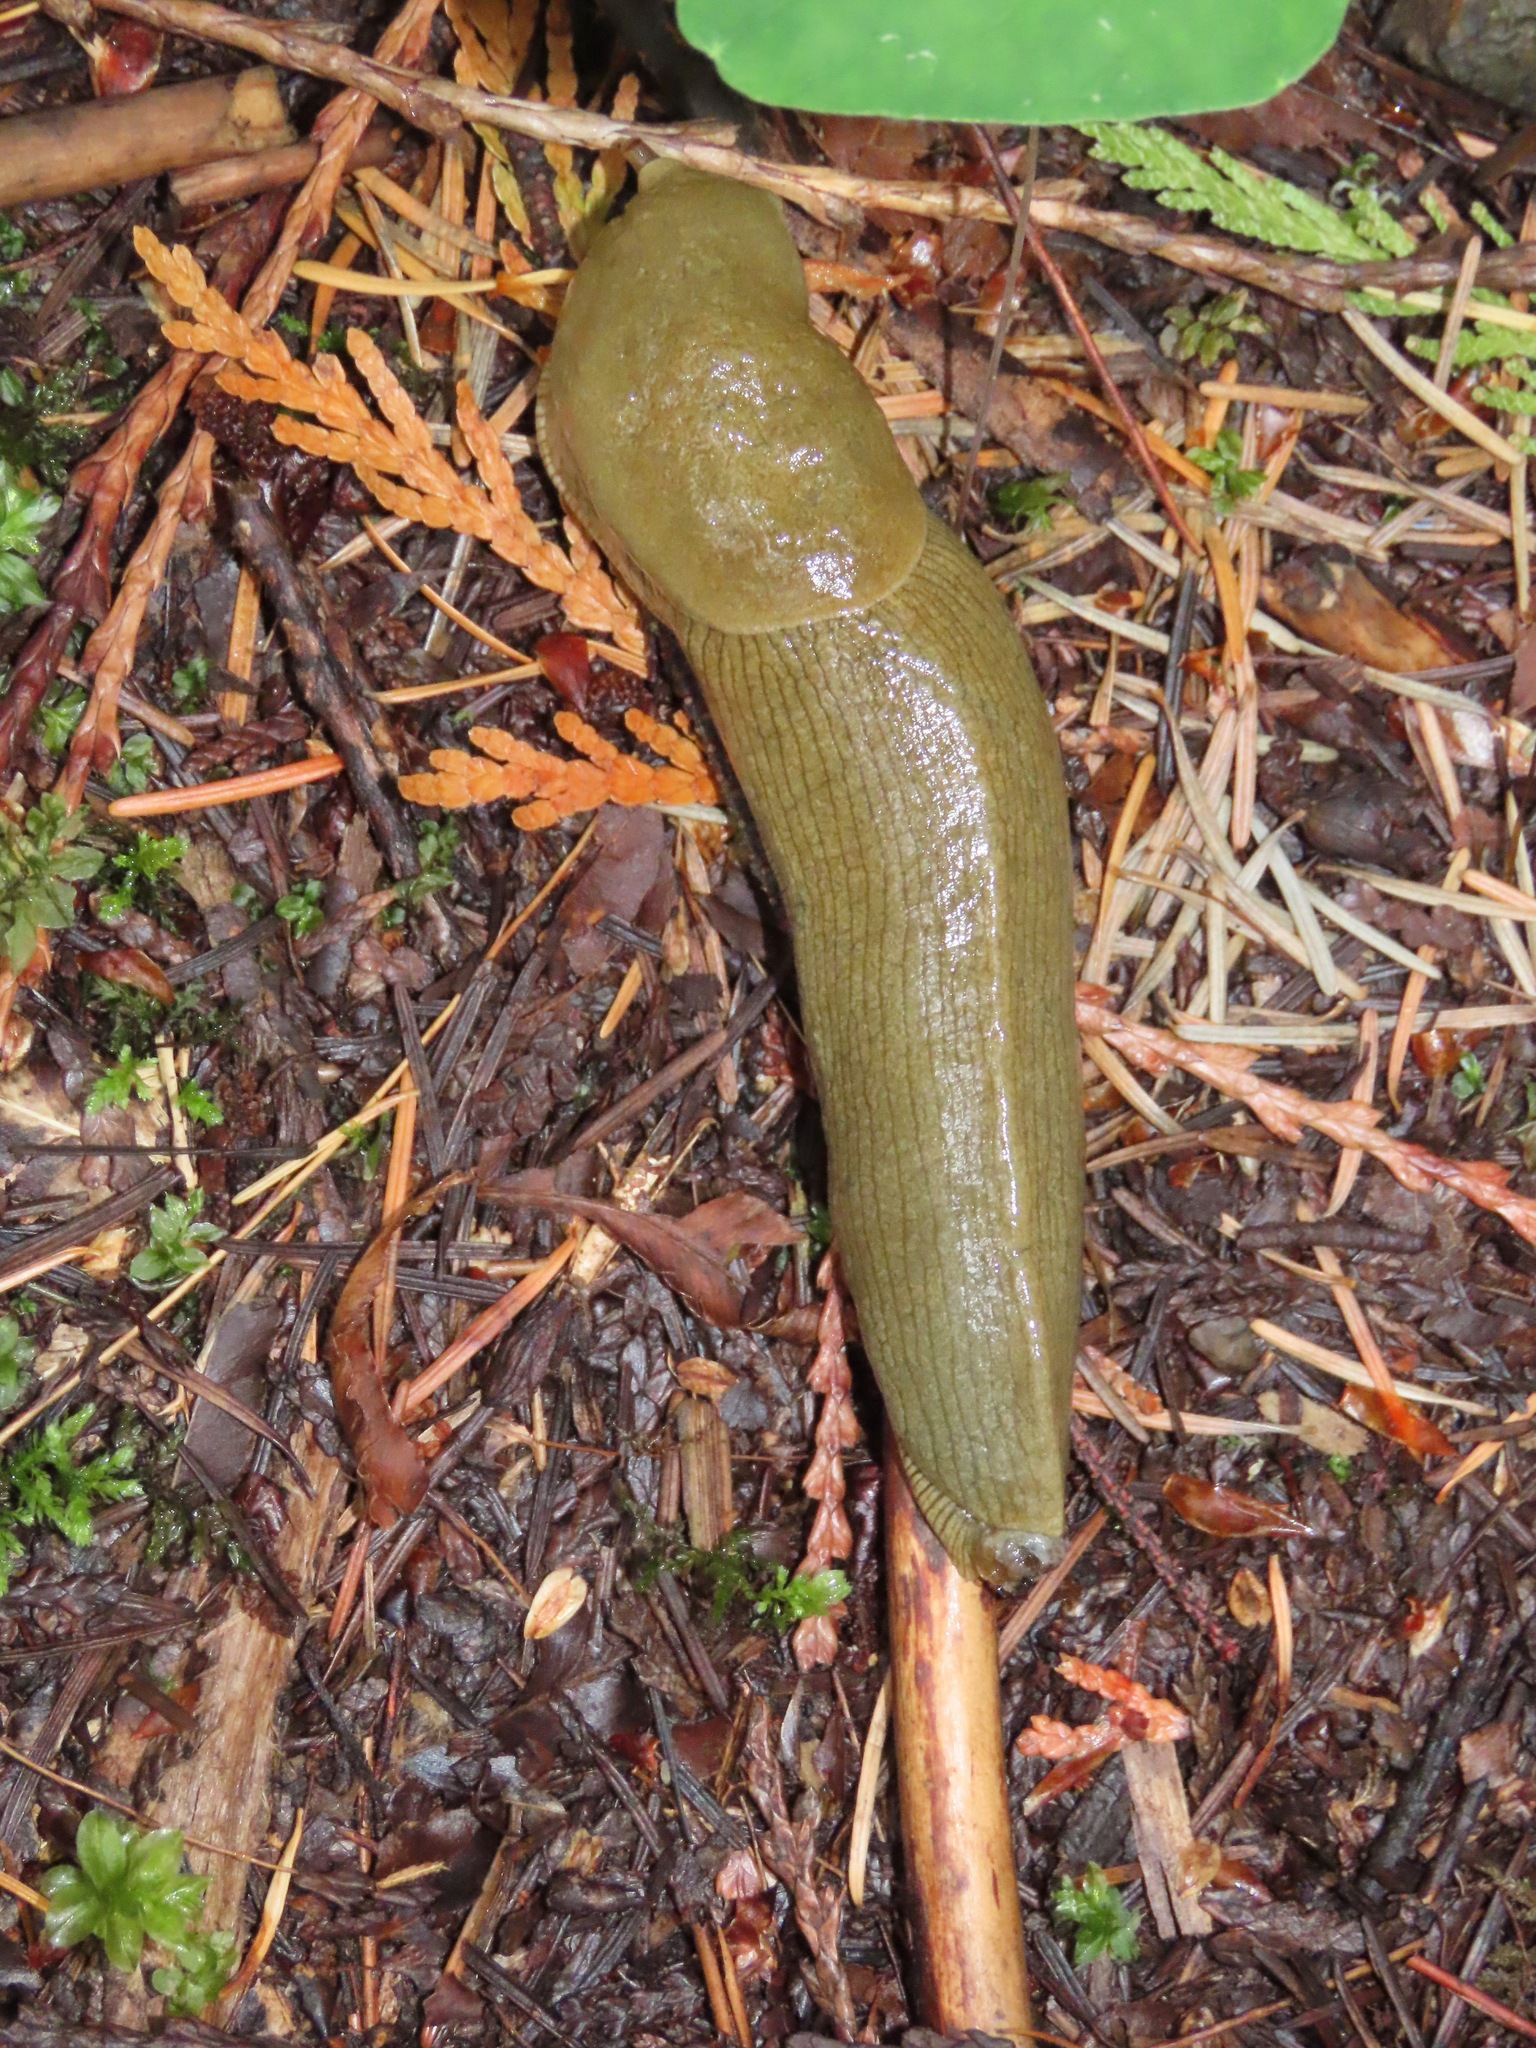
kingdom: Animalia
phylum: Mollusca
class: Gastropoda
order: Stylommatophora
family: Ariolimacidae
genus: Ariolimax
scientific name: Ariolimax columbianus
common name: Pacific banana slug
